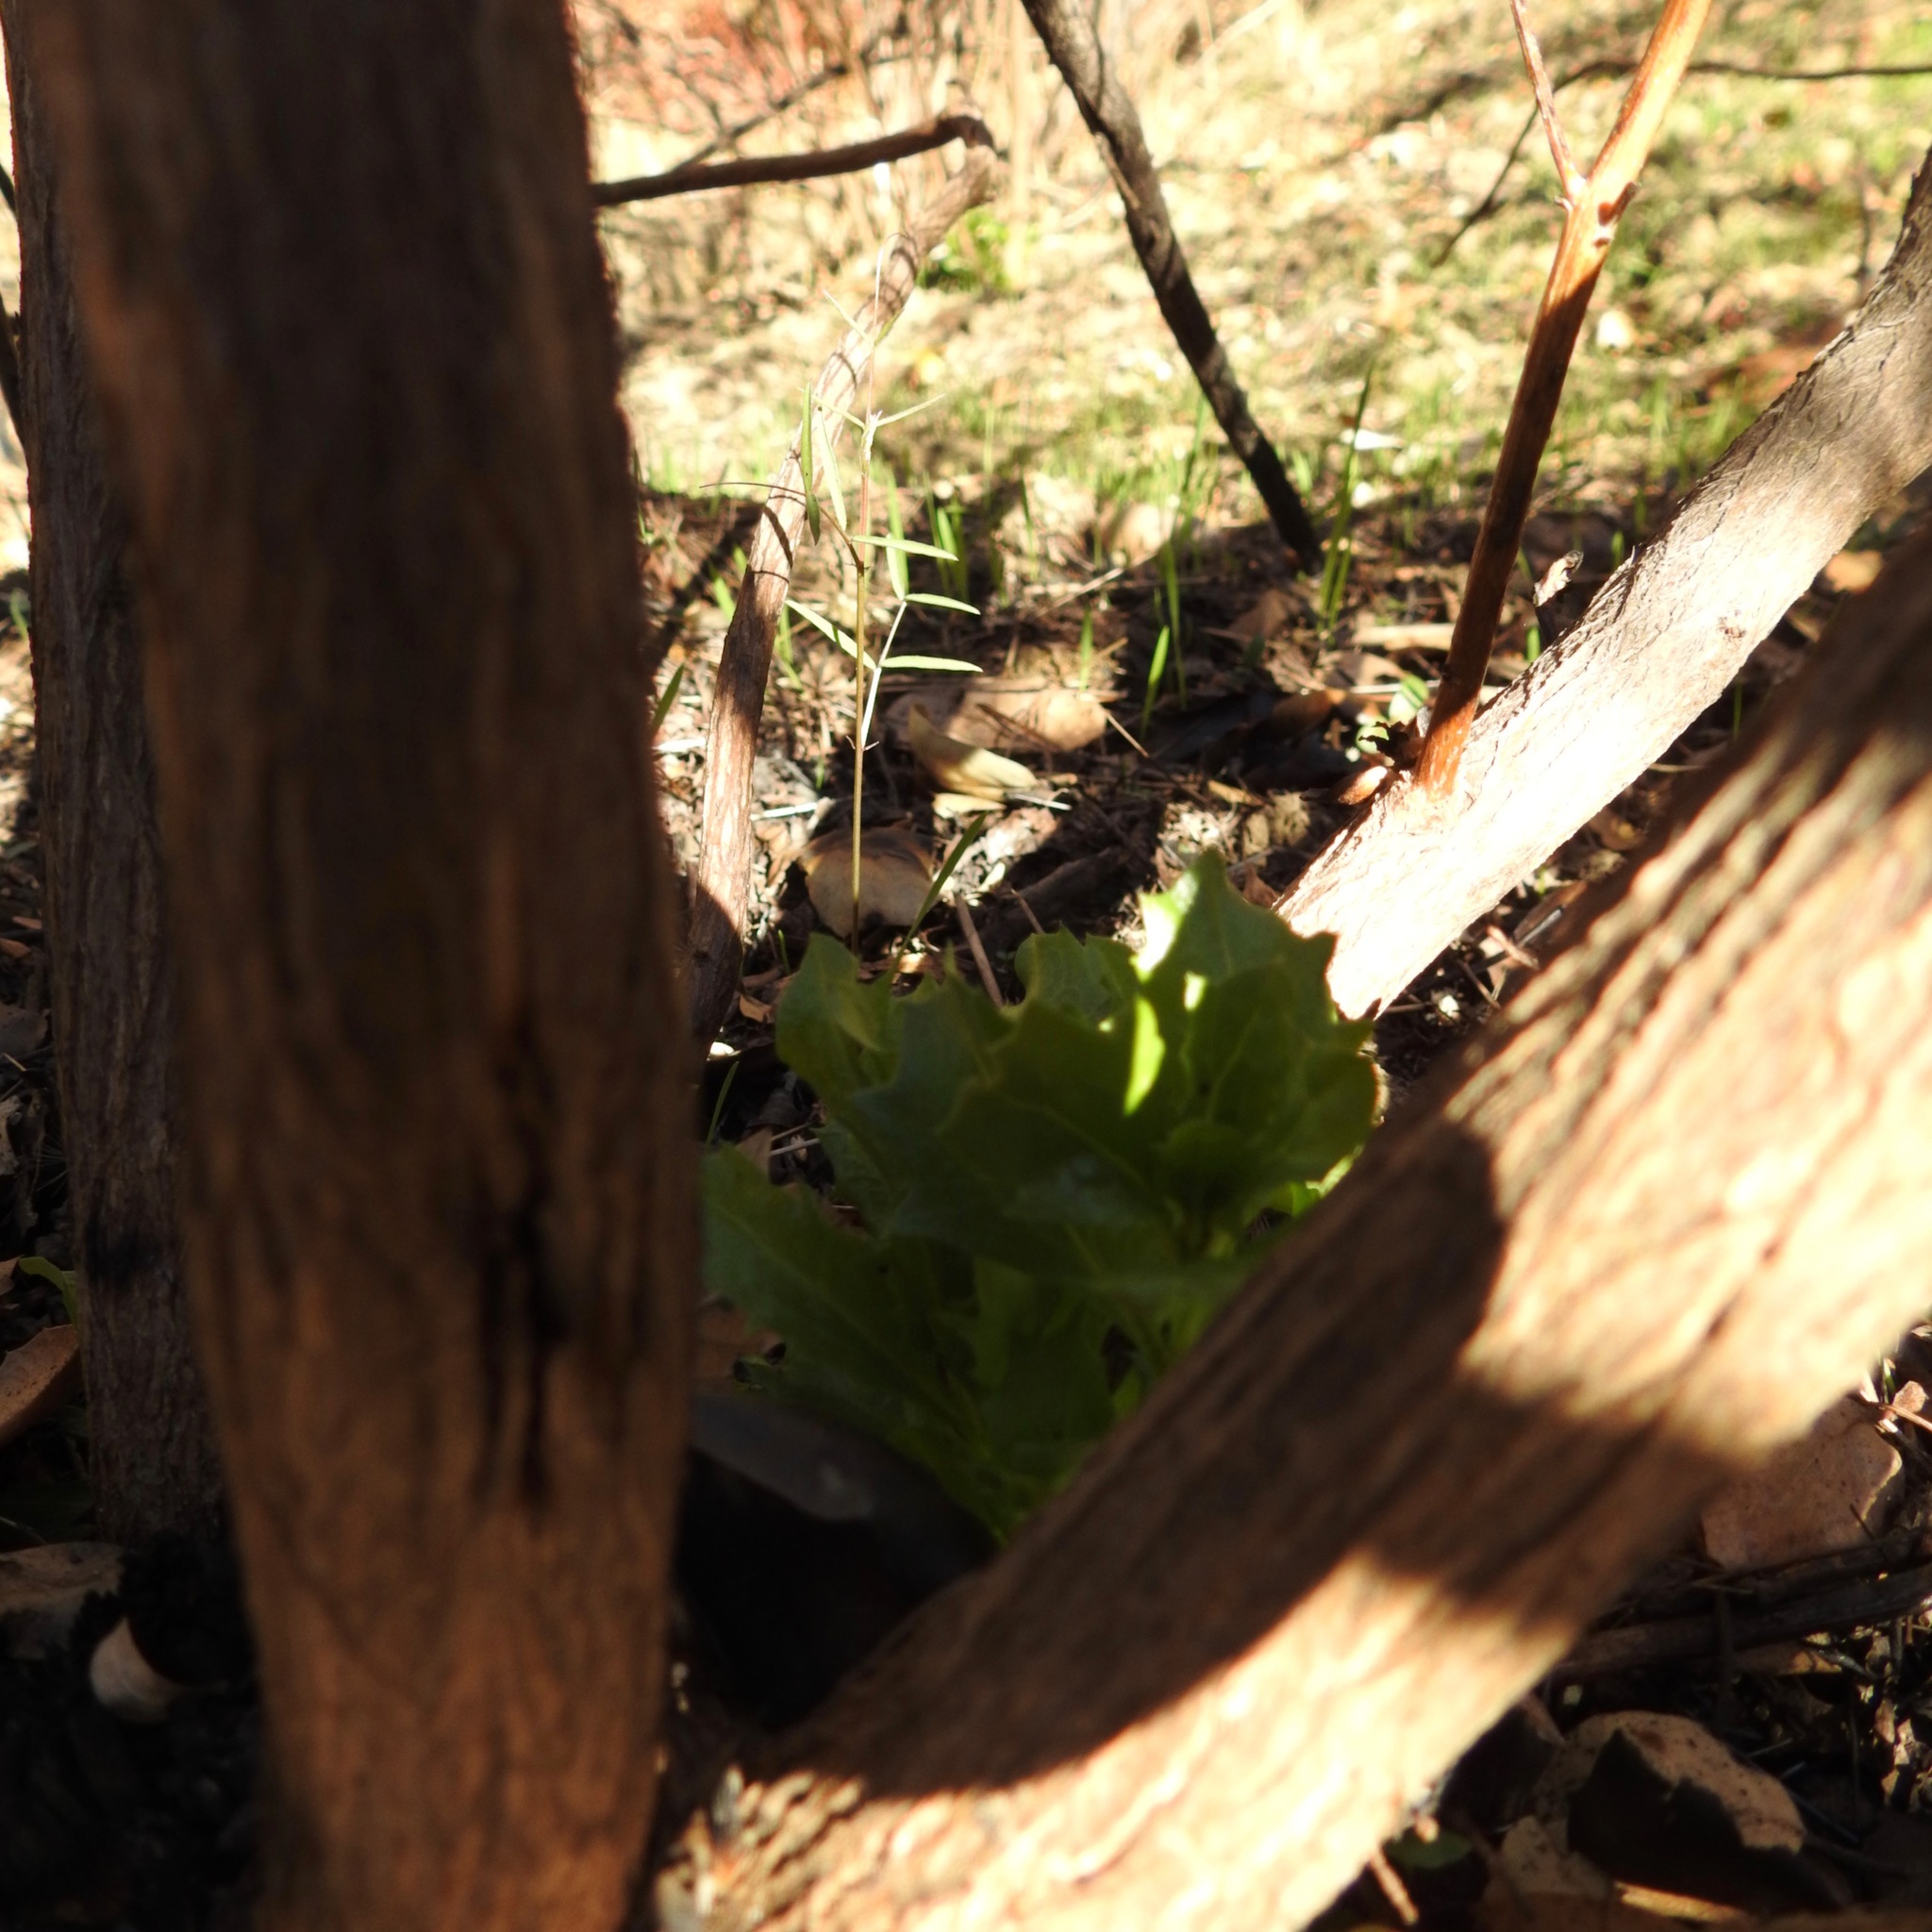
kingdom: Plantae
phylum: Tracheophyta
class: Magnoliopsida
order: Asterales
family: Asteraceae
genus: Baccharis
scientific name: Baccharis pilularis
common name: Coyotebrush
